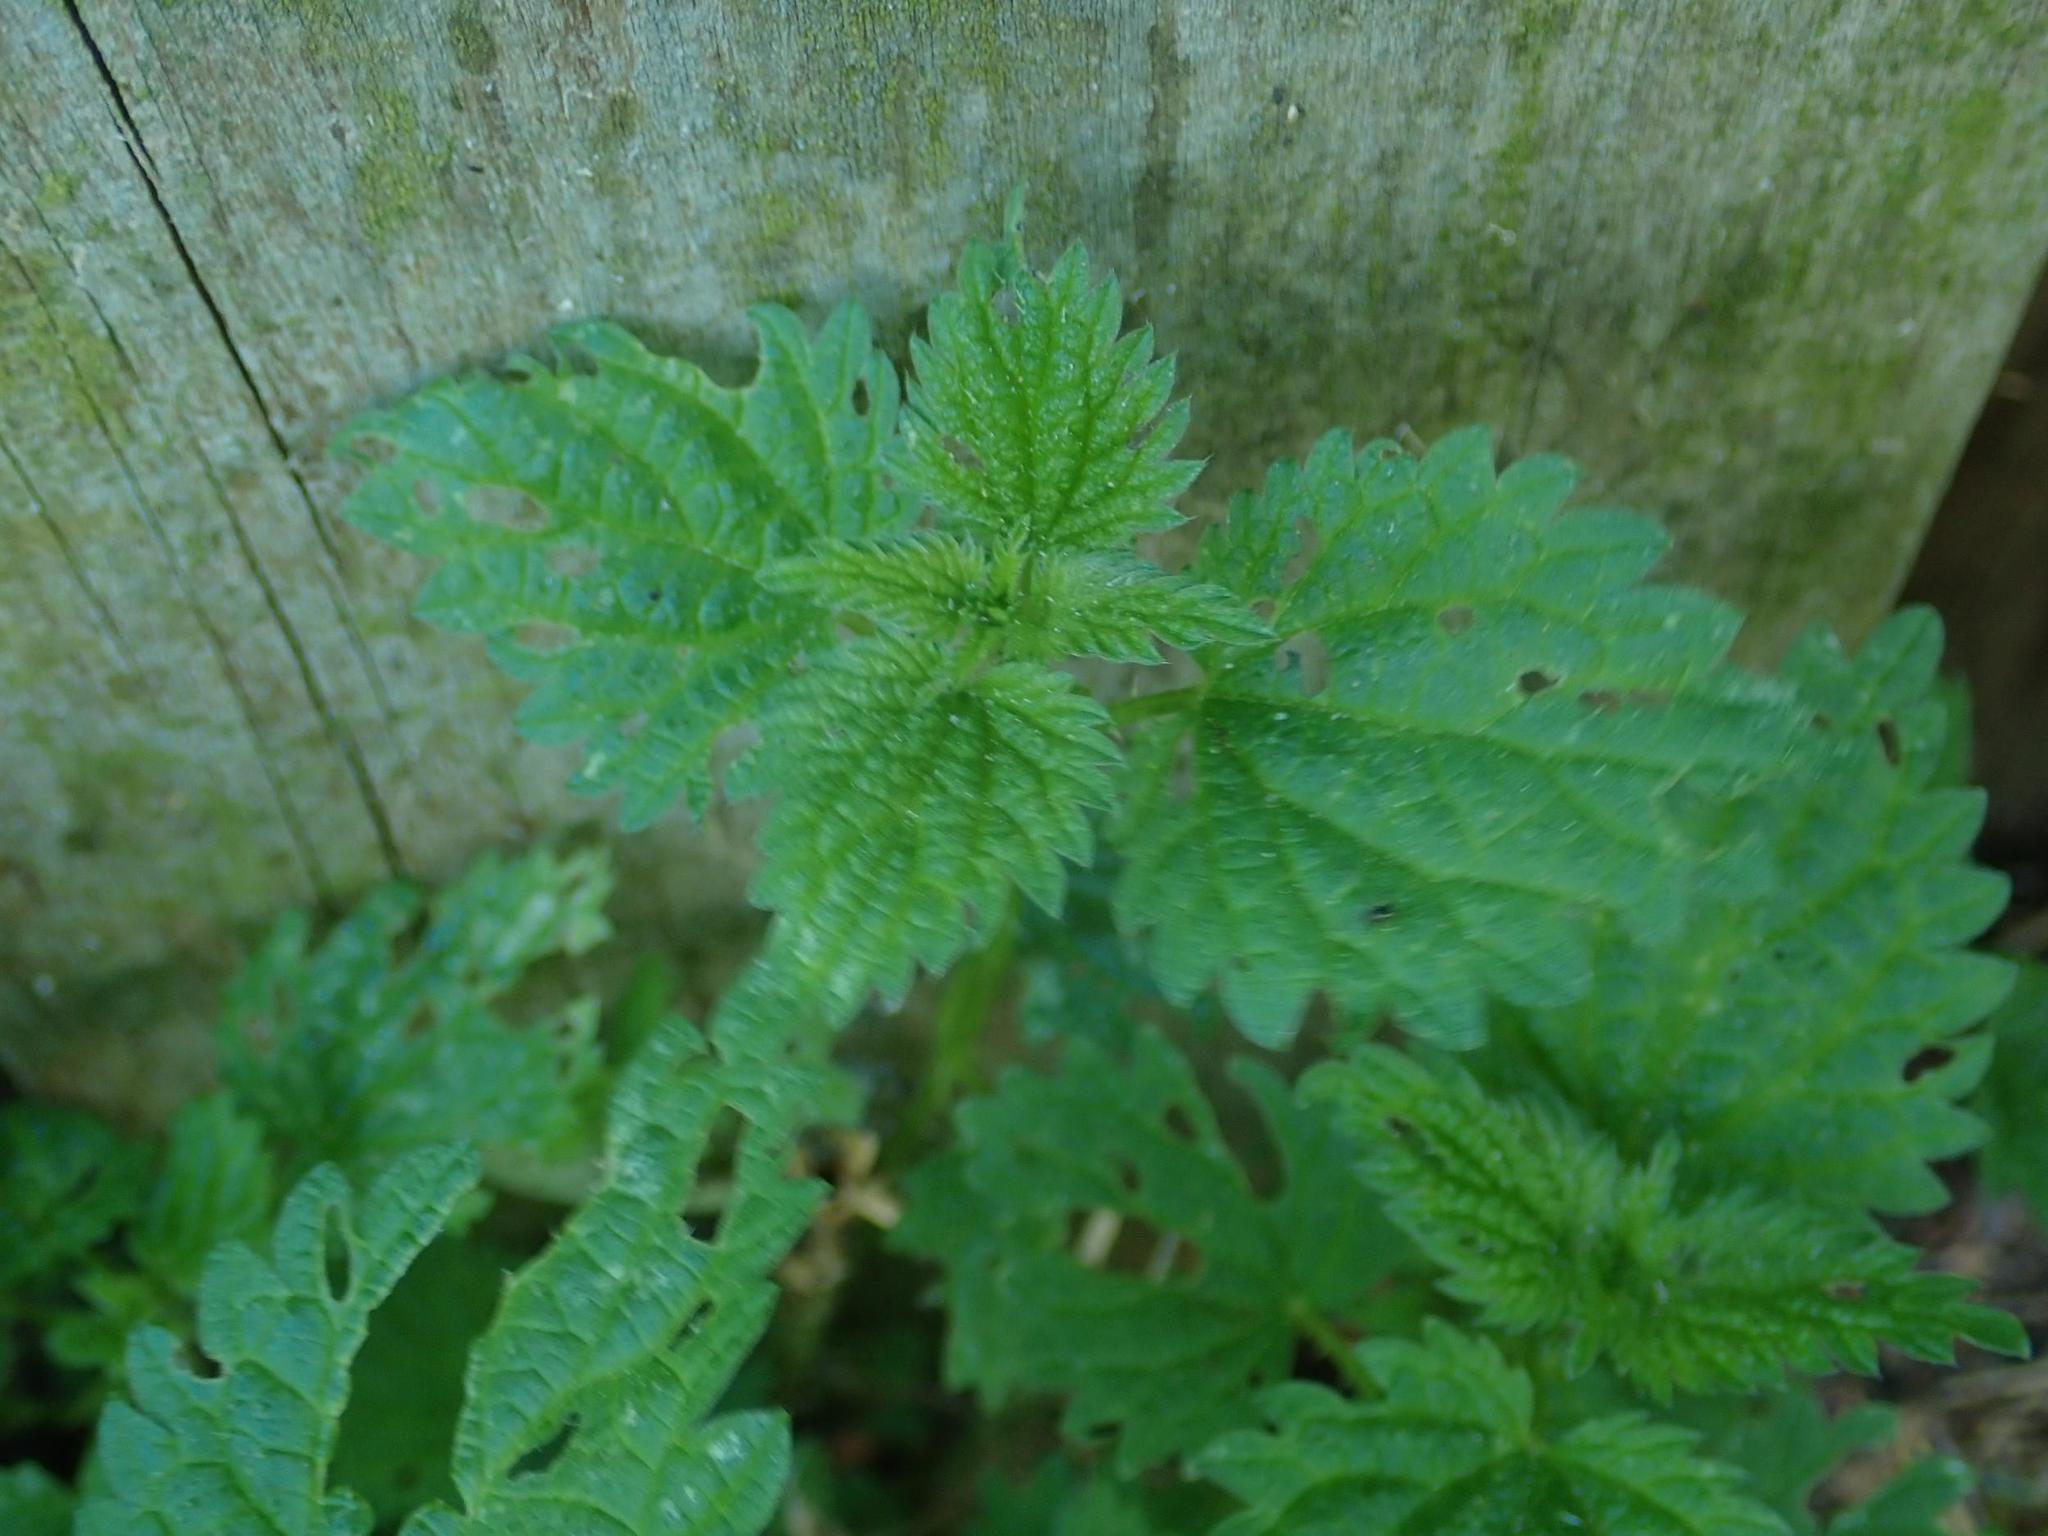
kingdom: Plantae
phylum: Tracheophyta
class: Magnoliopsida
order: Rosales
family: Urticaceae
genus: Urtica
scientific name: Urtica dioica
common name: Common nettle
